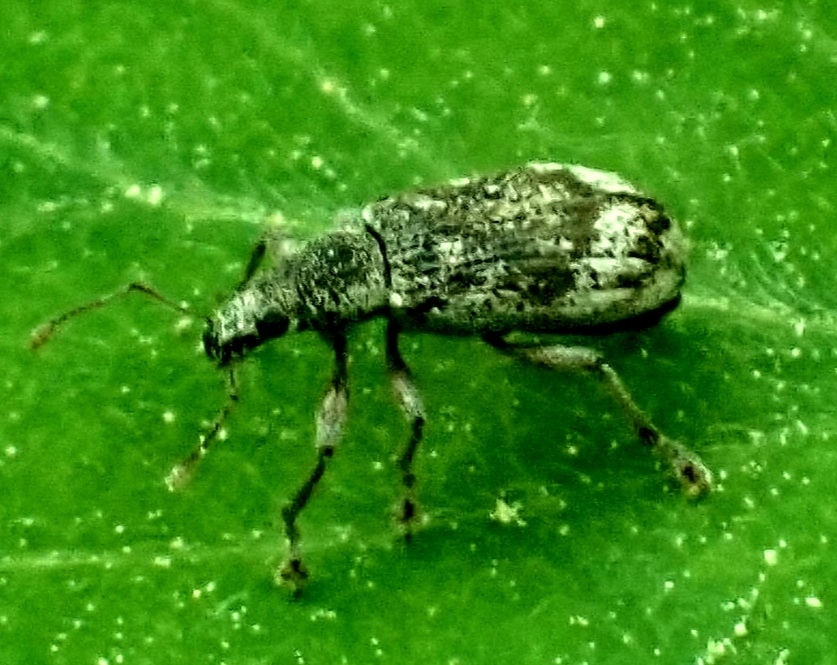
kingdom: Animalia
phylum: Arthropoda
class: Insecta
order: Coleoptera
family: Curculionidae
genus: Polydrusus
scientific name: Polydrusus tereticollis
